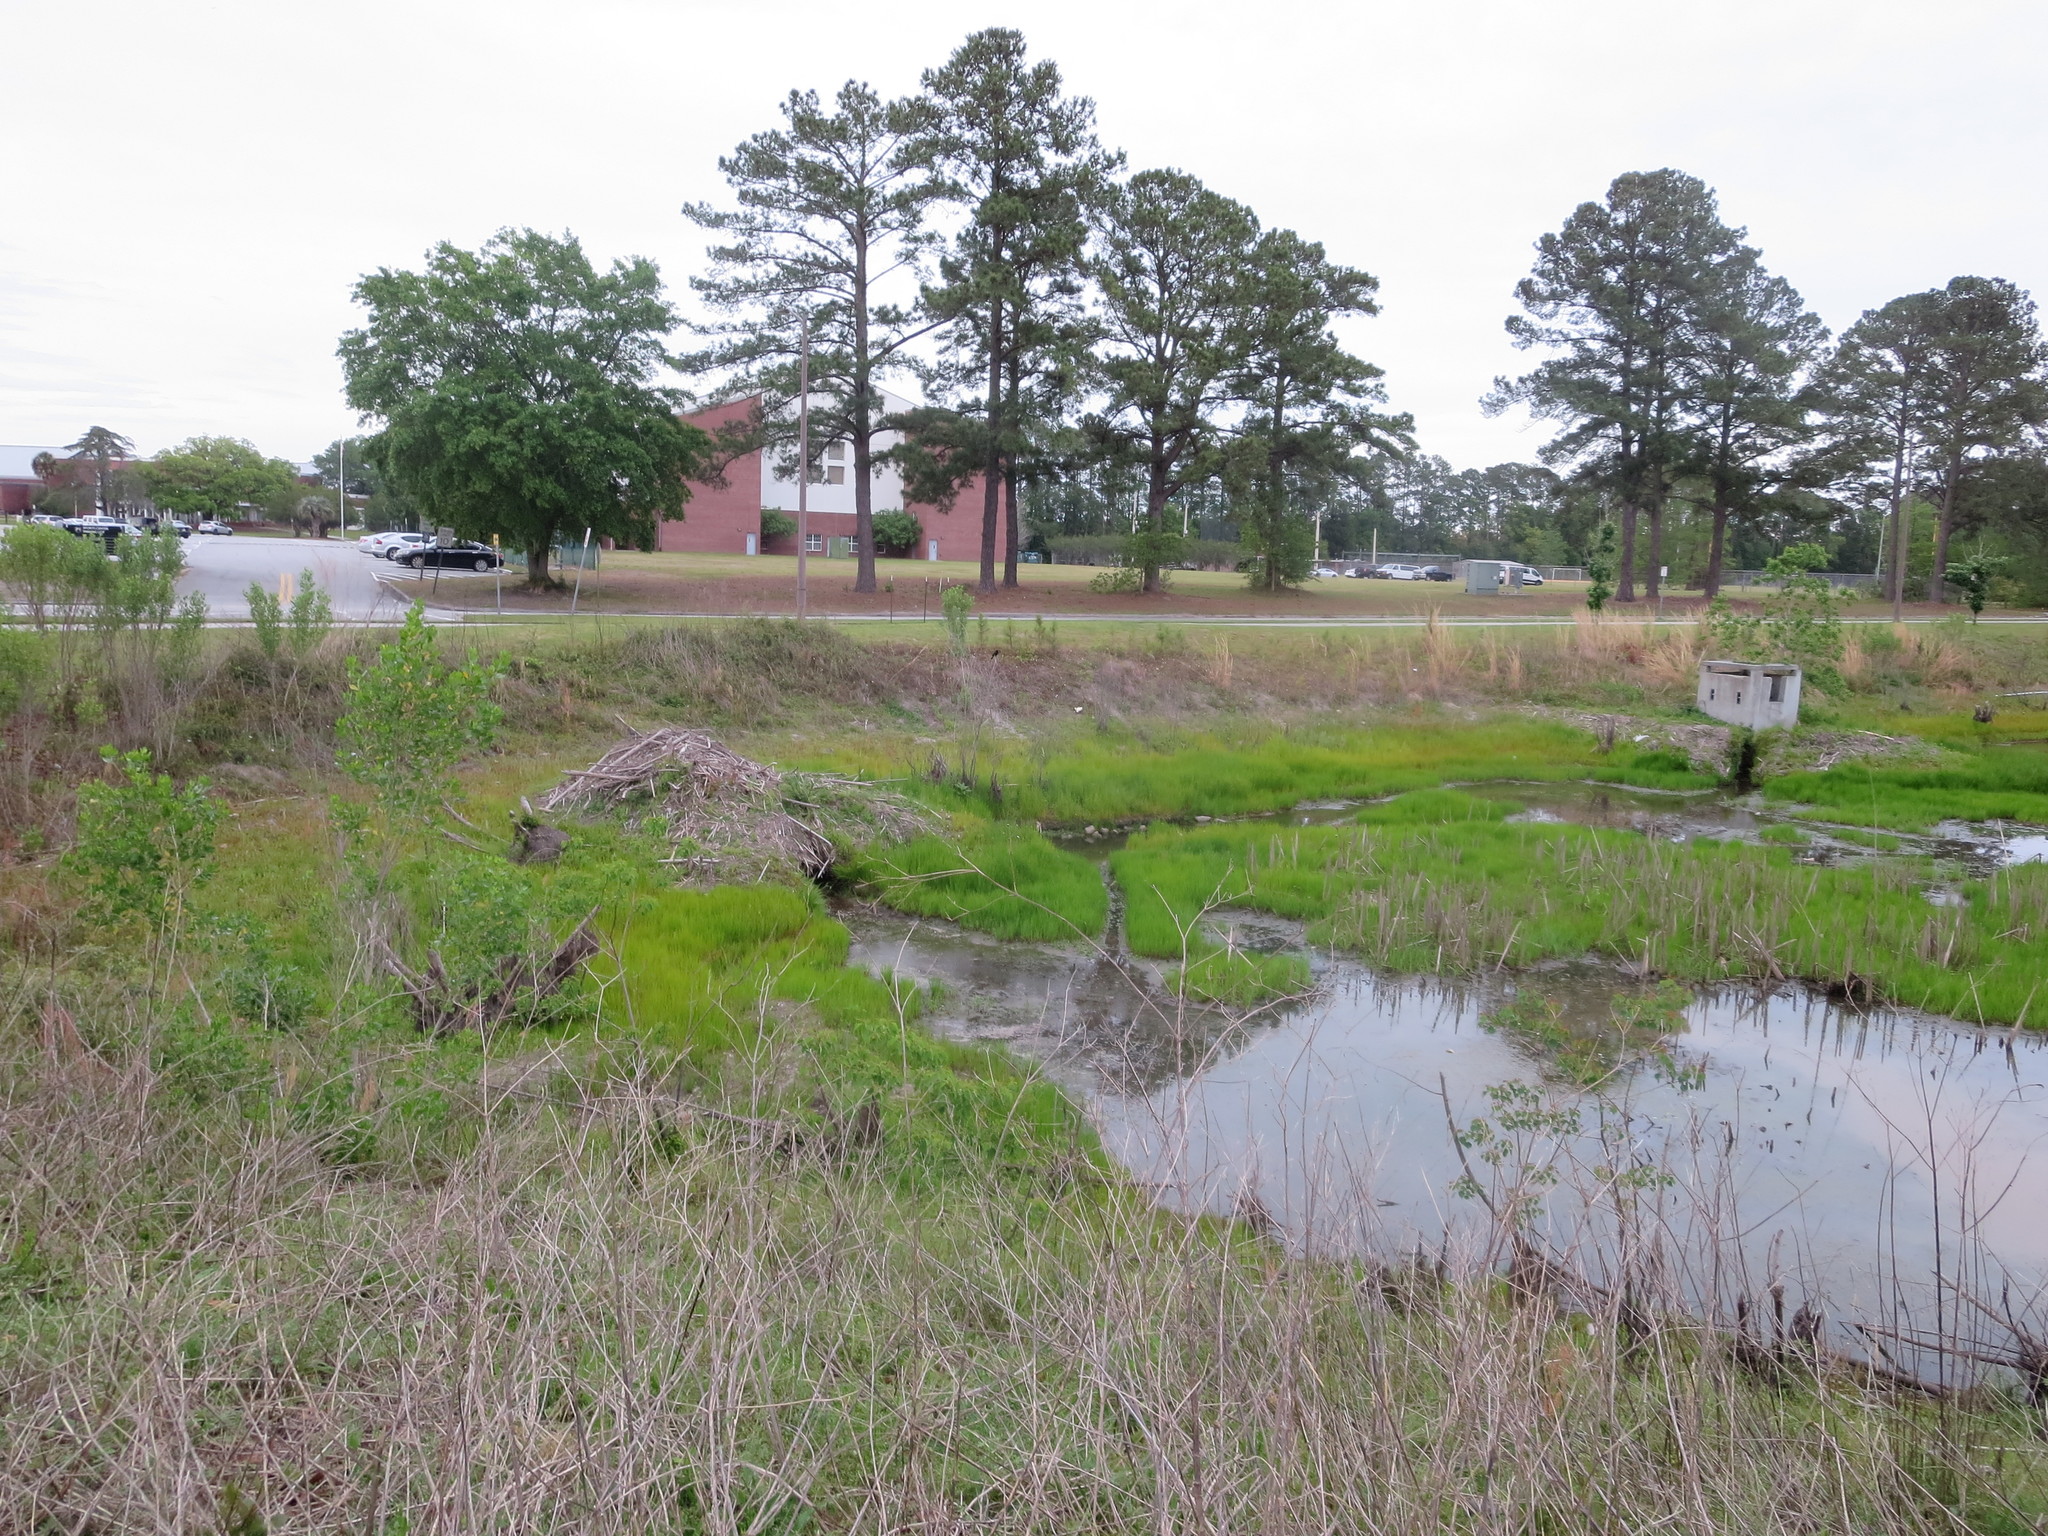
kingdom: Animalia
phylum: Chordata
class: Mammalia
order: Rodentia
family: Castoridae
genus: Castor
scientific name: Castor canadensis
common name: American beaver
